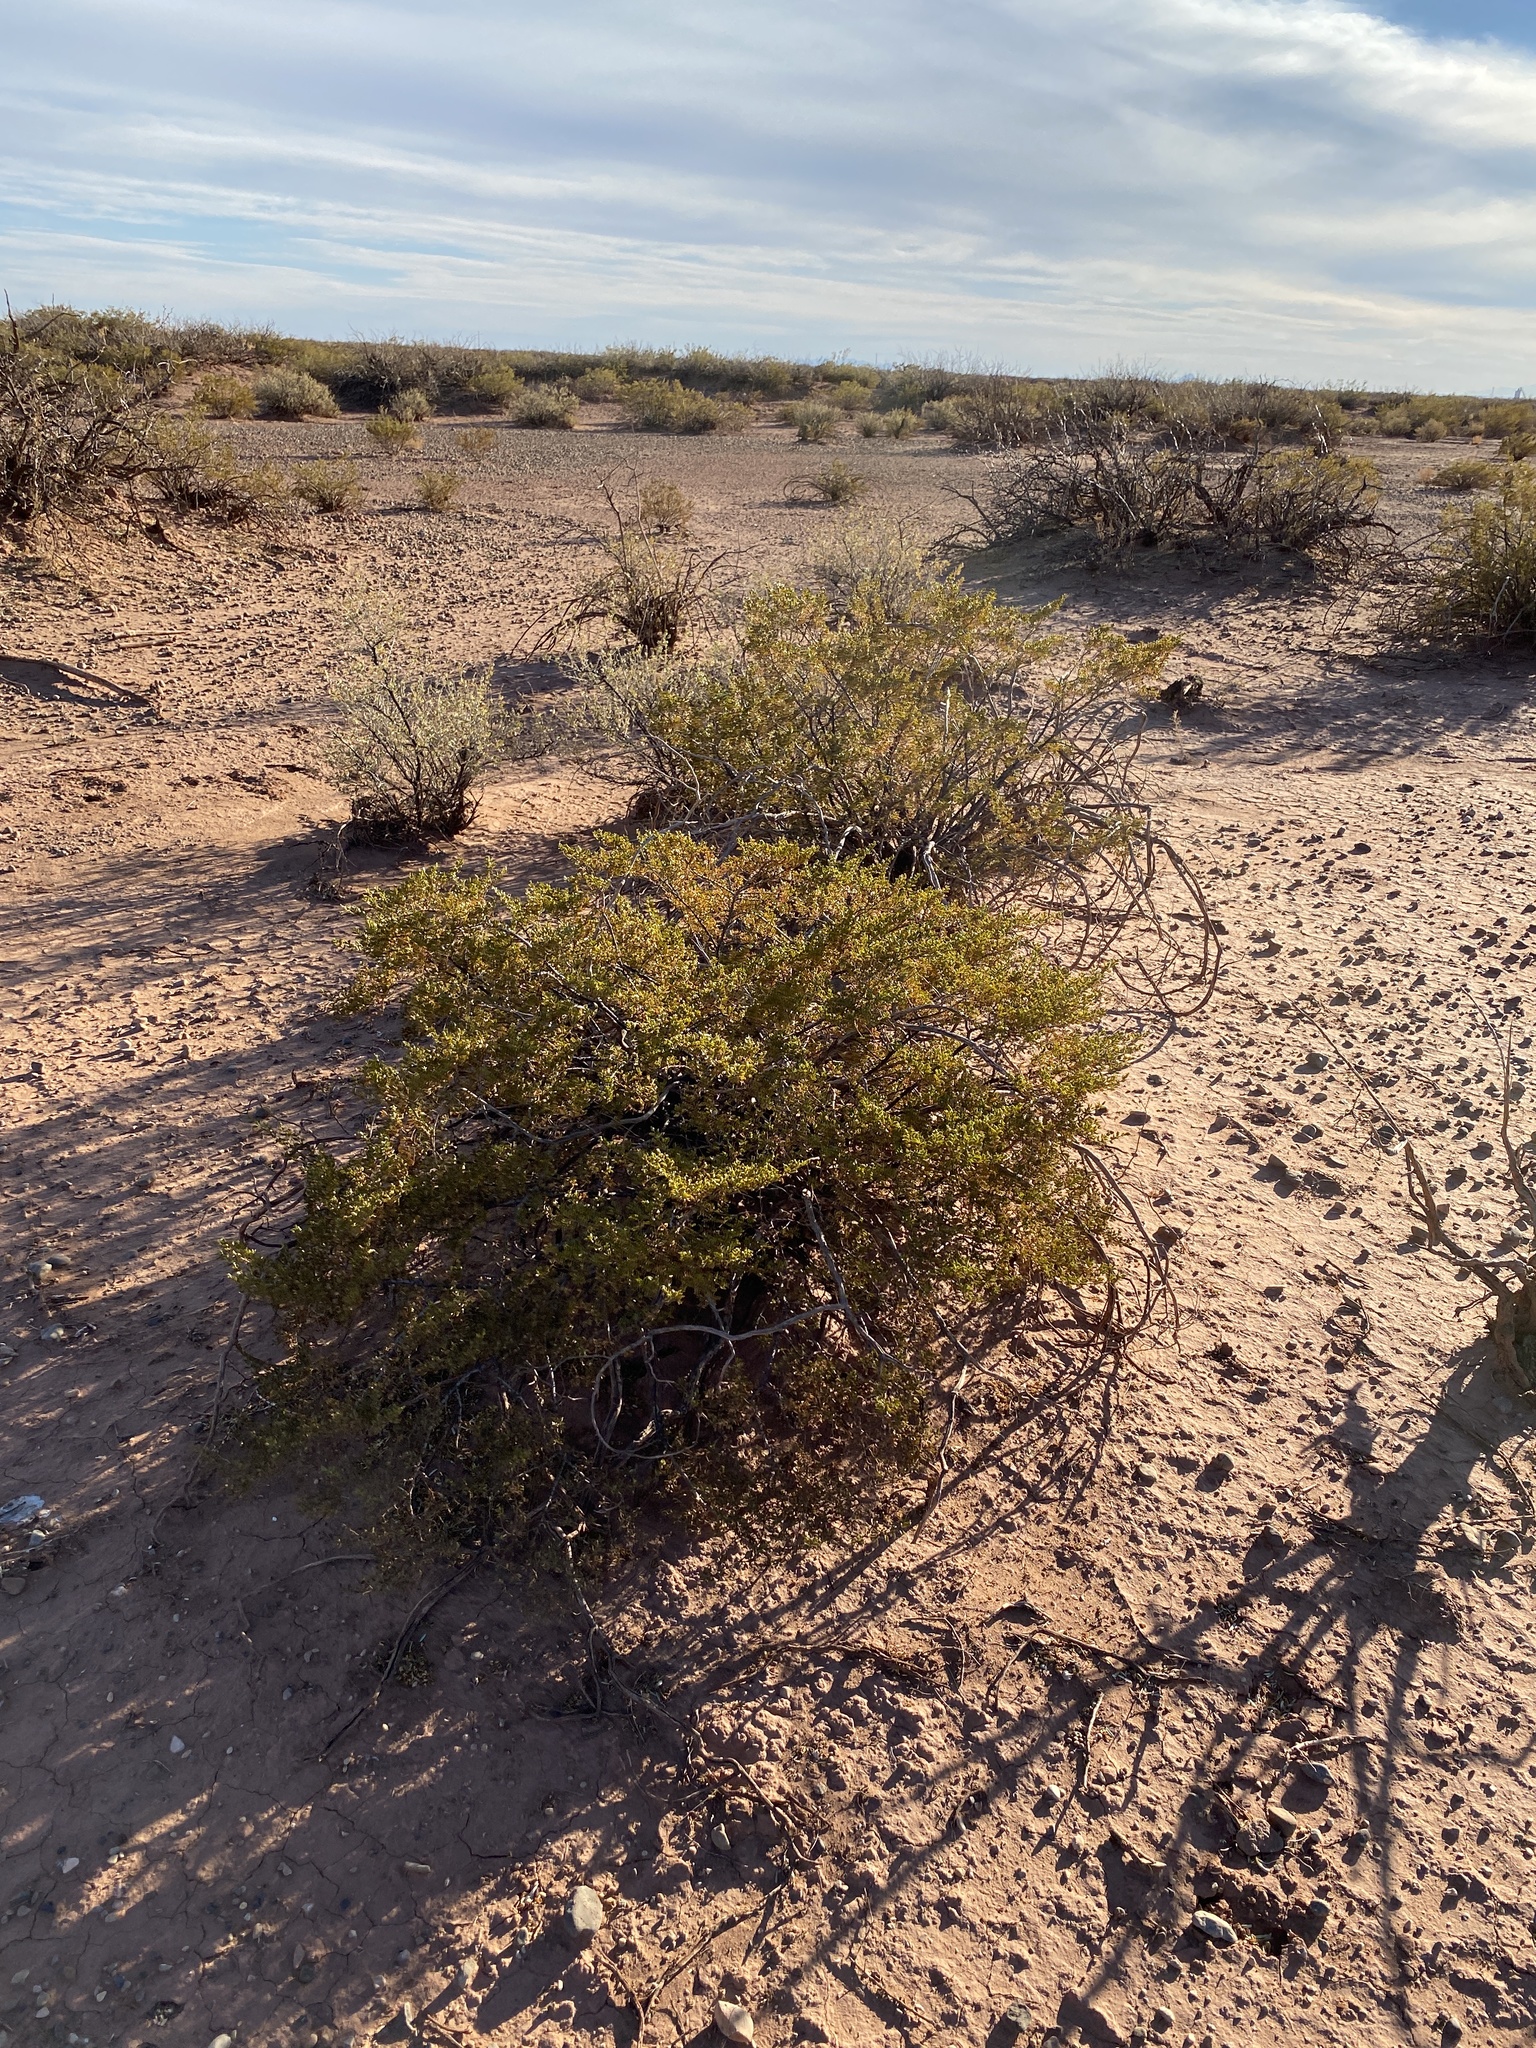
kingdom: Plantae
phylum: Tracheophyta
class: Magnoliopsida
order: Zygophyllales
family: Zygophyllaceae
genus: Larrea
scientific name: Larrea tridentata
